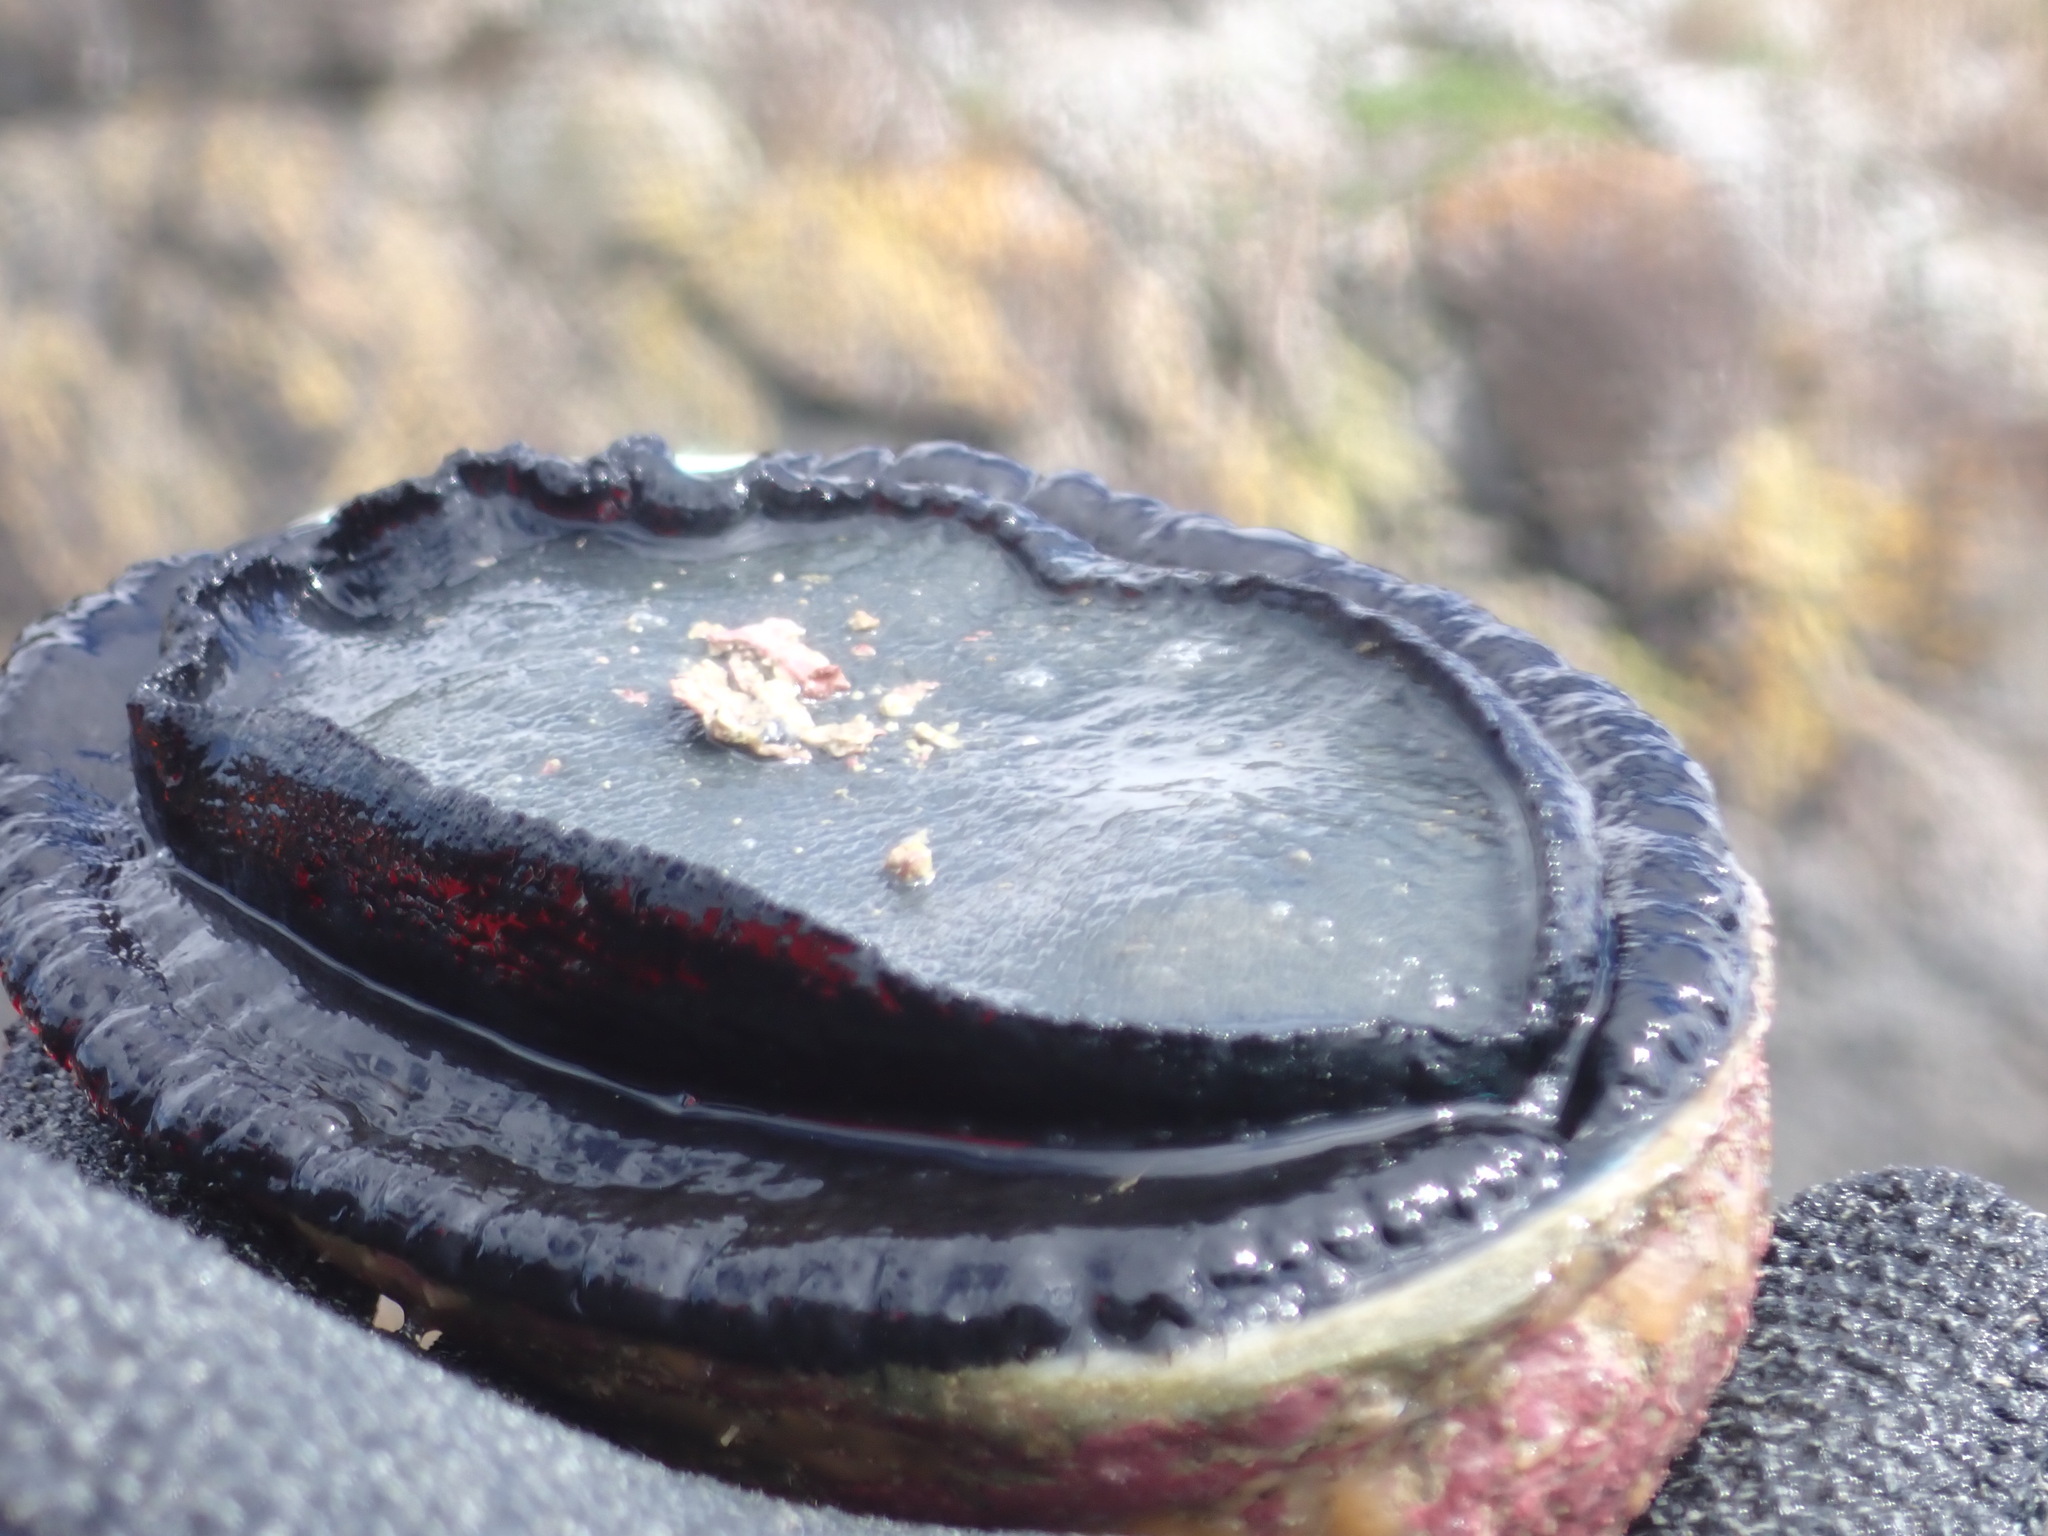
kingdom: Animalia
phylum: Mollusca
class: Gastropoda
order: Lepetellida
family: Haliotidae
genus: Haliotis
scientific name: Haliotis iris
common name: Abalone
